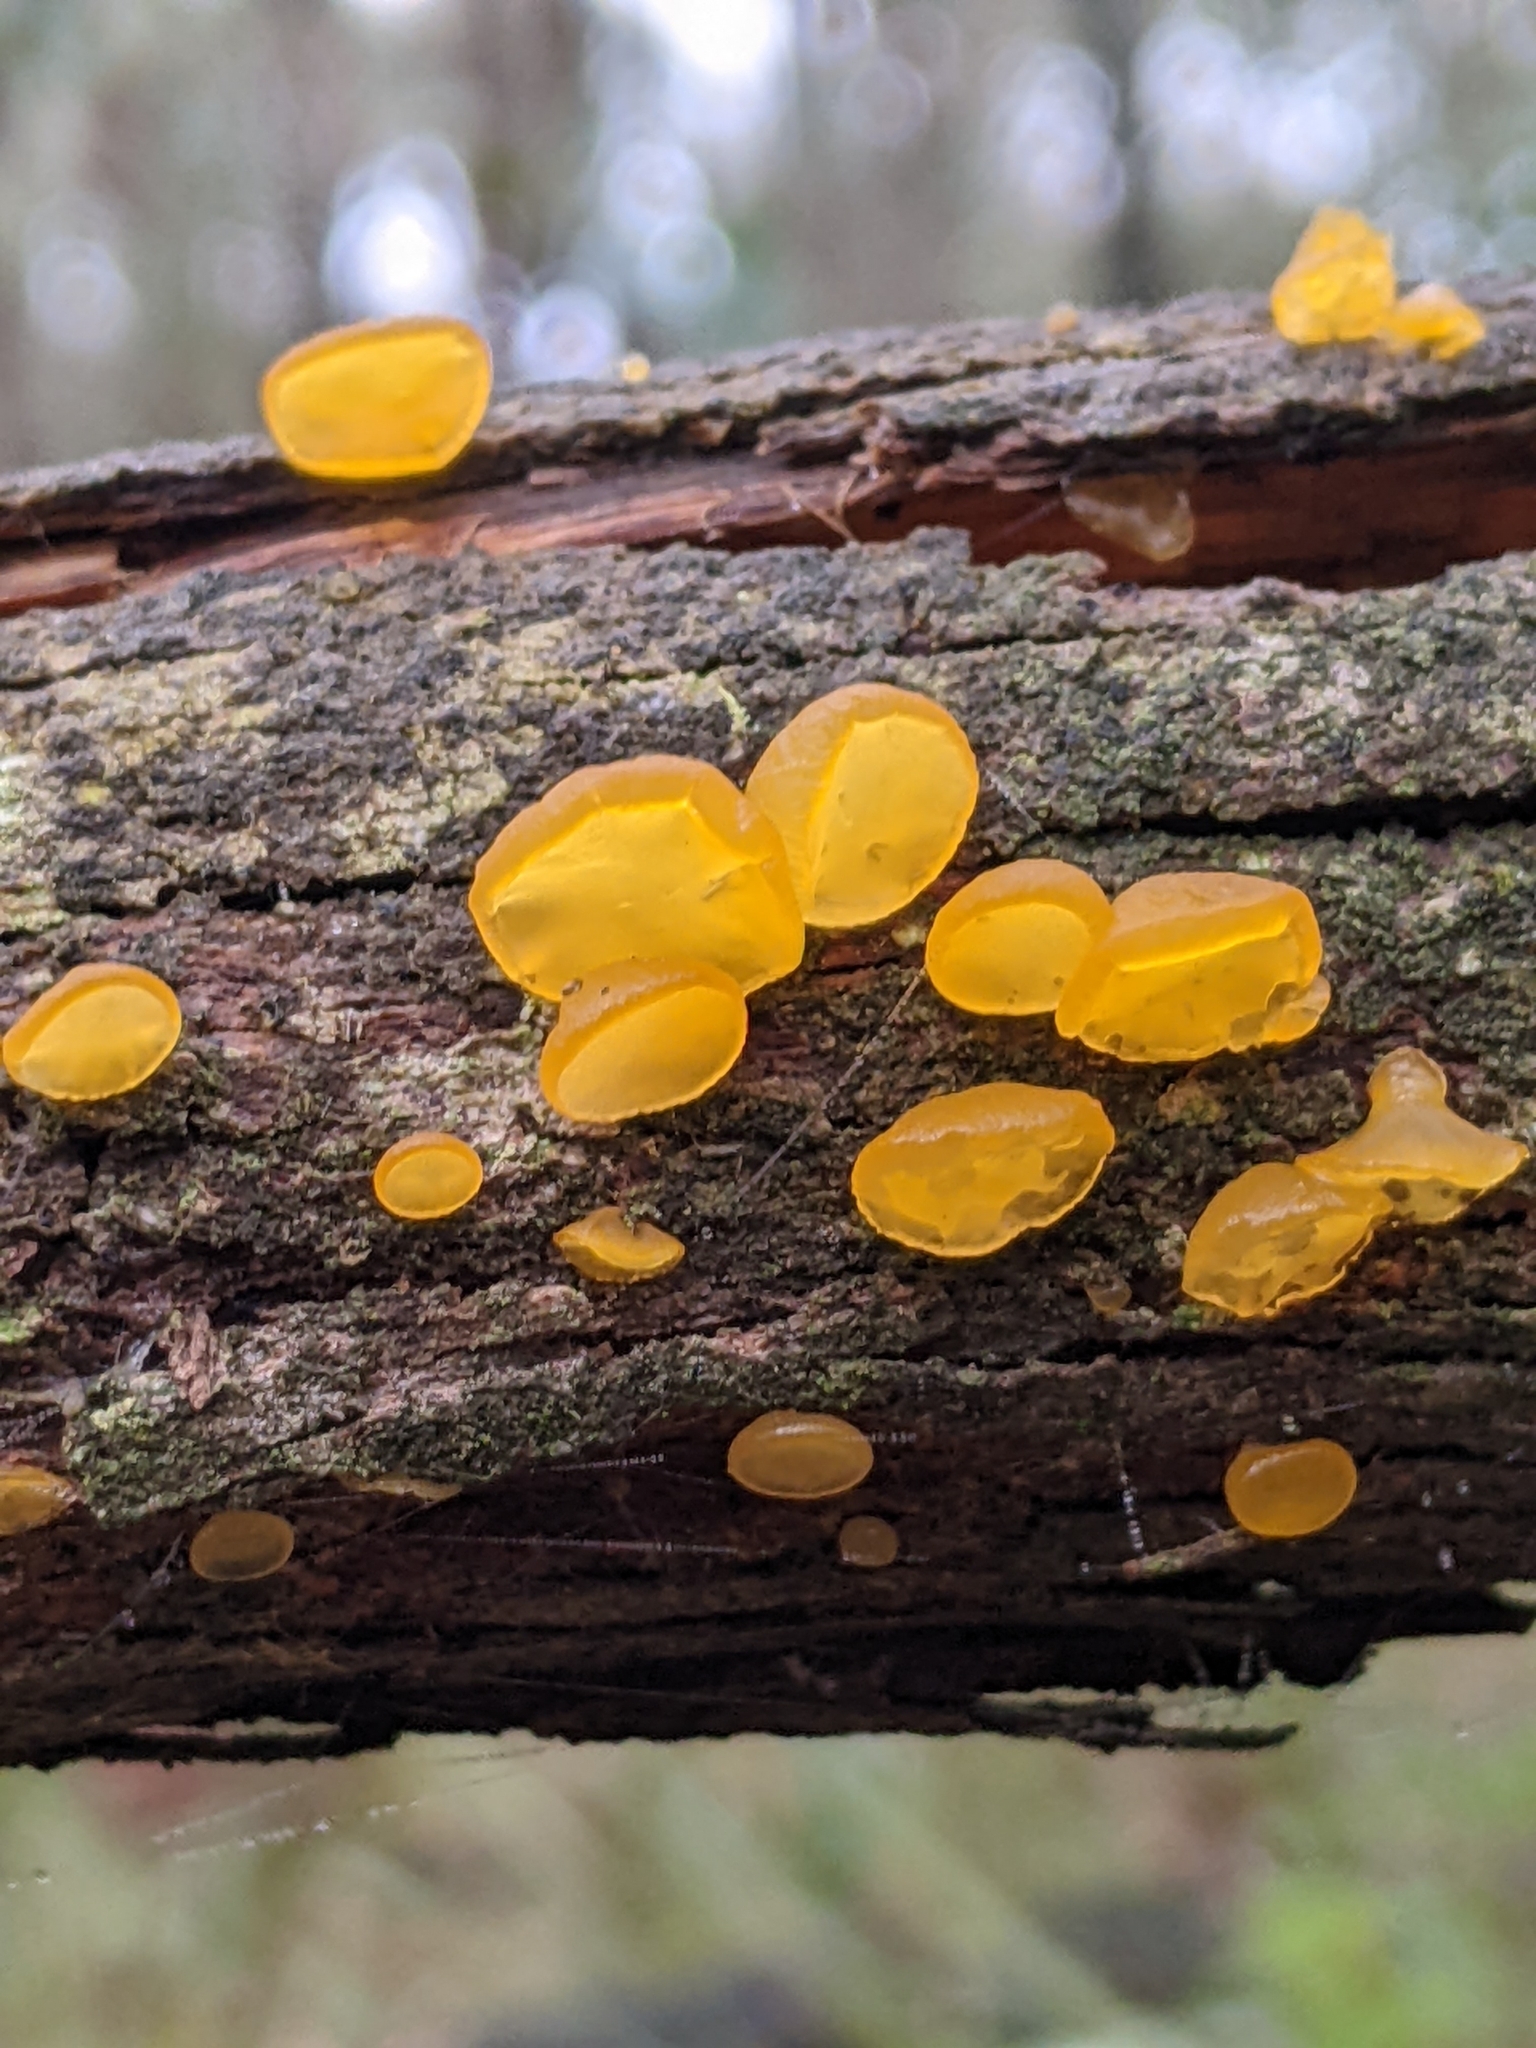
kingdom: Fungi
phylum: Basidiomycota
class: Dacrymycetes
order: Dacrymycetales
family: Dacrymycetaceae
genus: Heterotextus
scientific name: Heterotextus peziziformis
